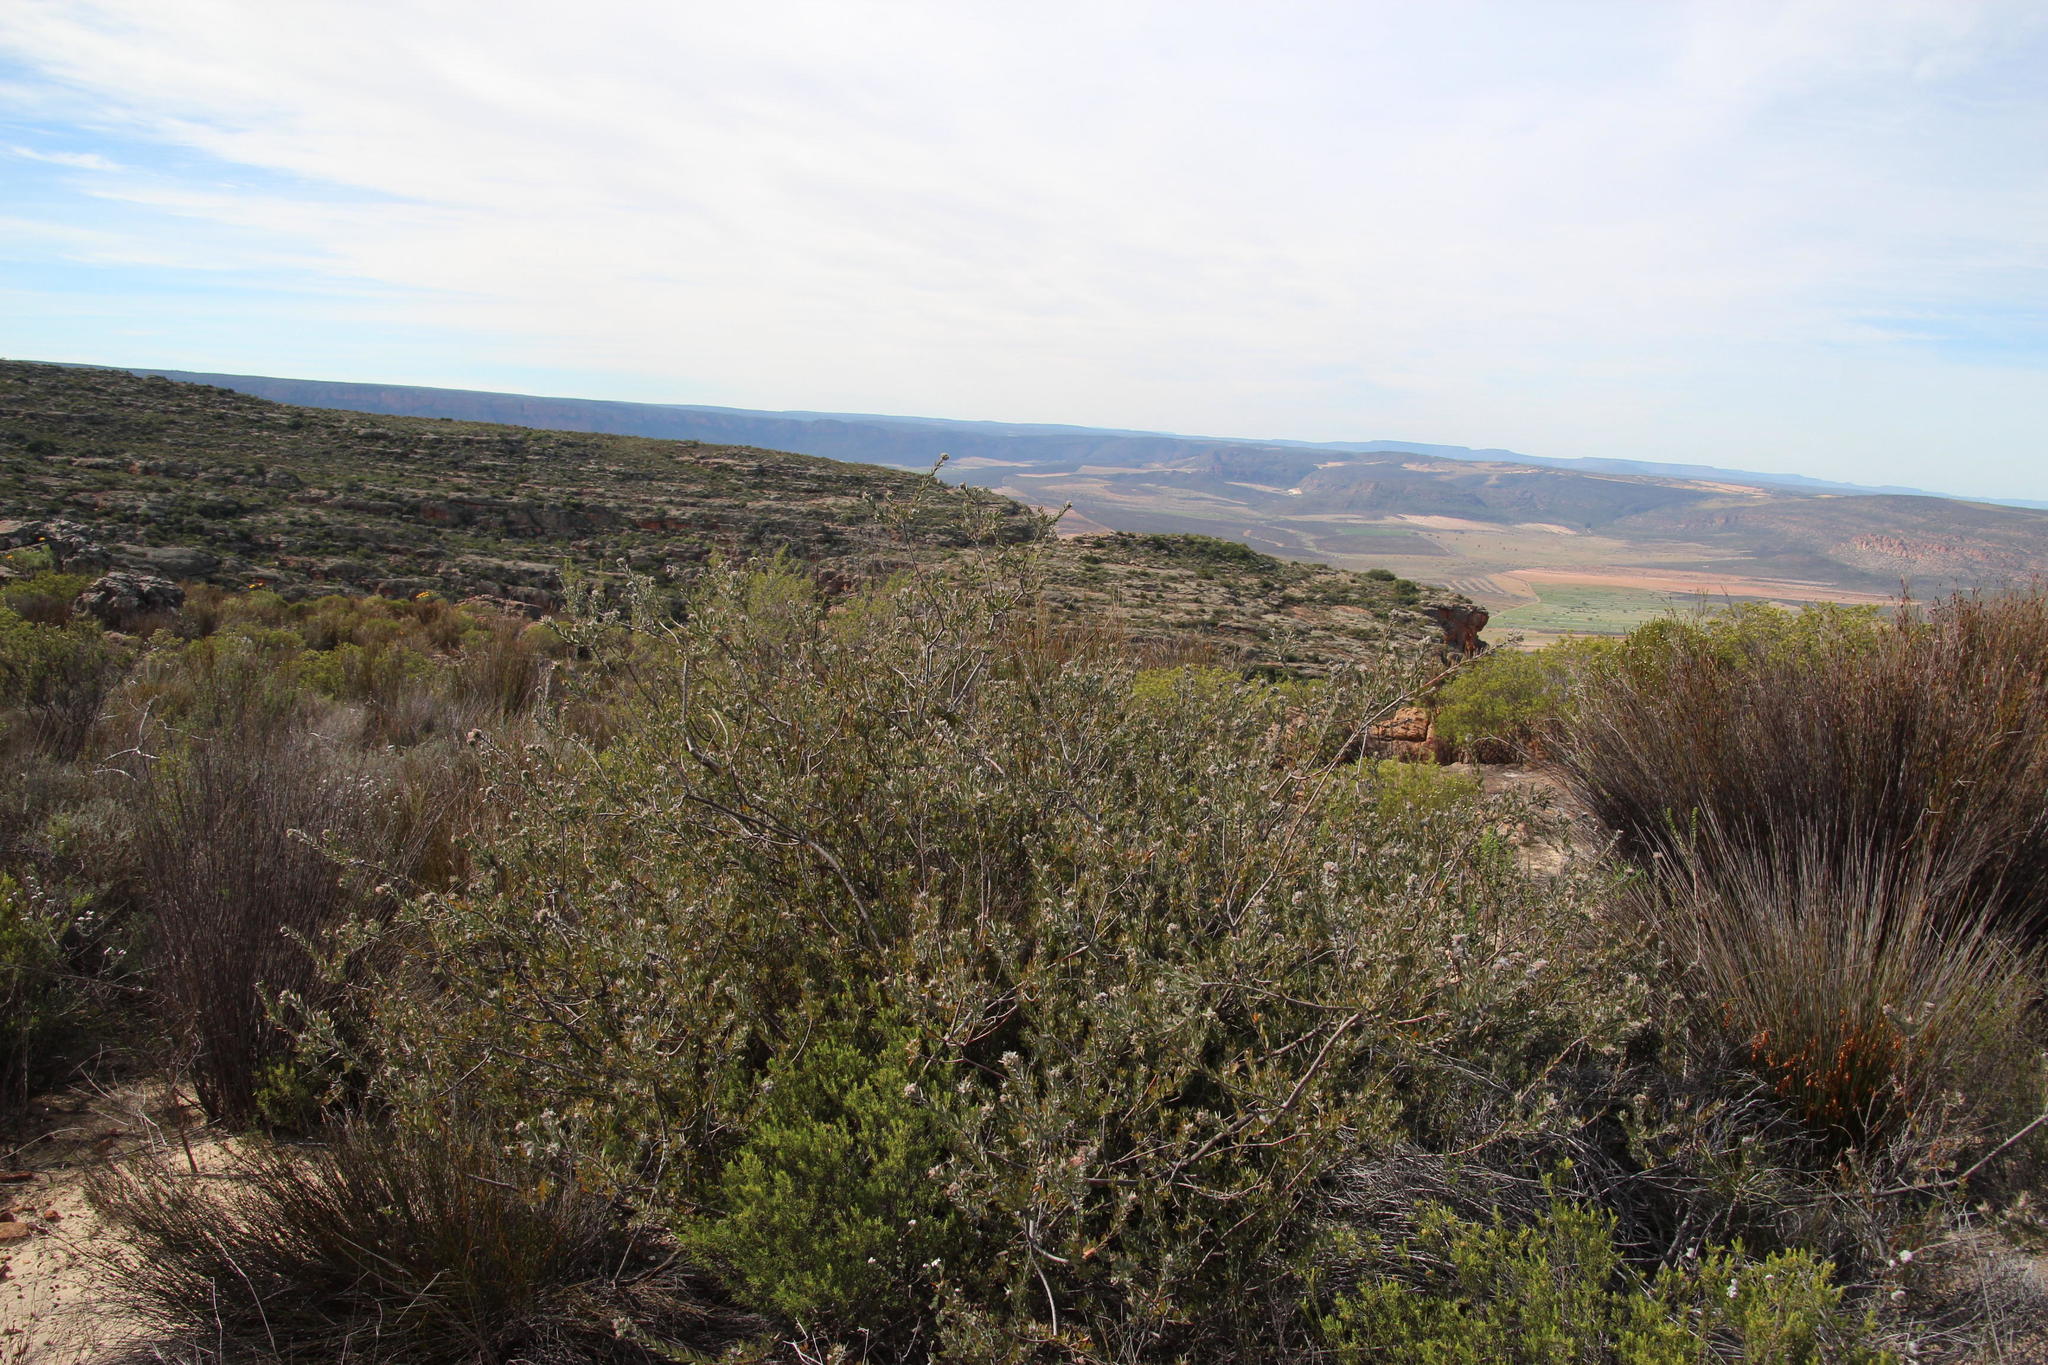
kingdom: Plantae
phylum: Tracheophyta
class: Magnoliopsida
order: Proteales
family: Proteaceae
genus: Leucospermum
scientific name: Leucospermum calligerum
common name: Arid pincushion
